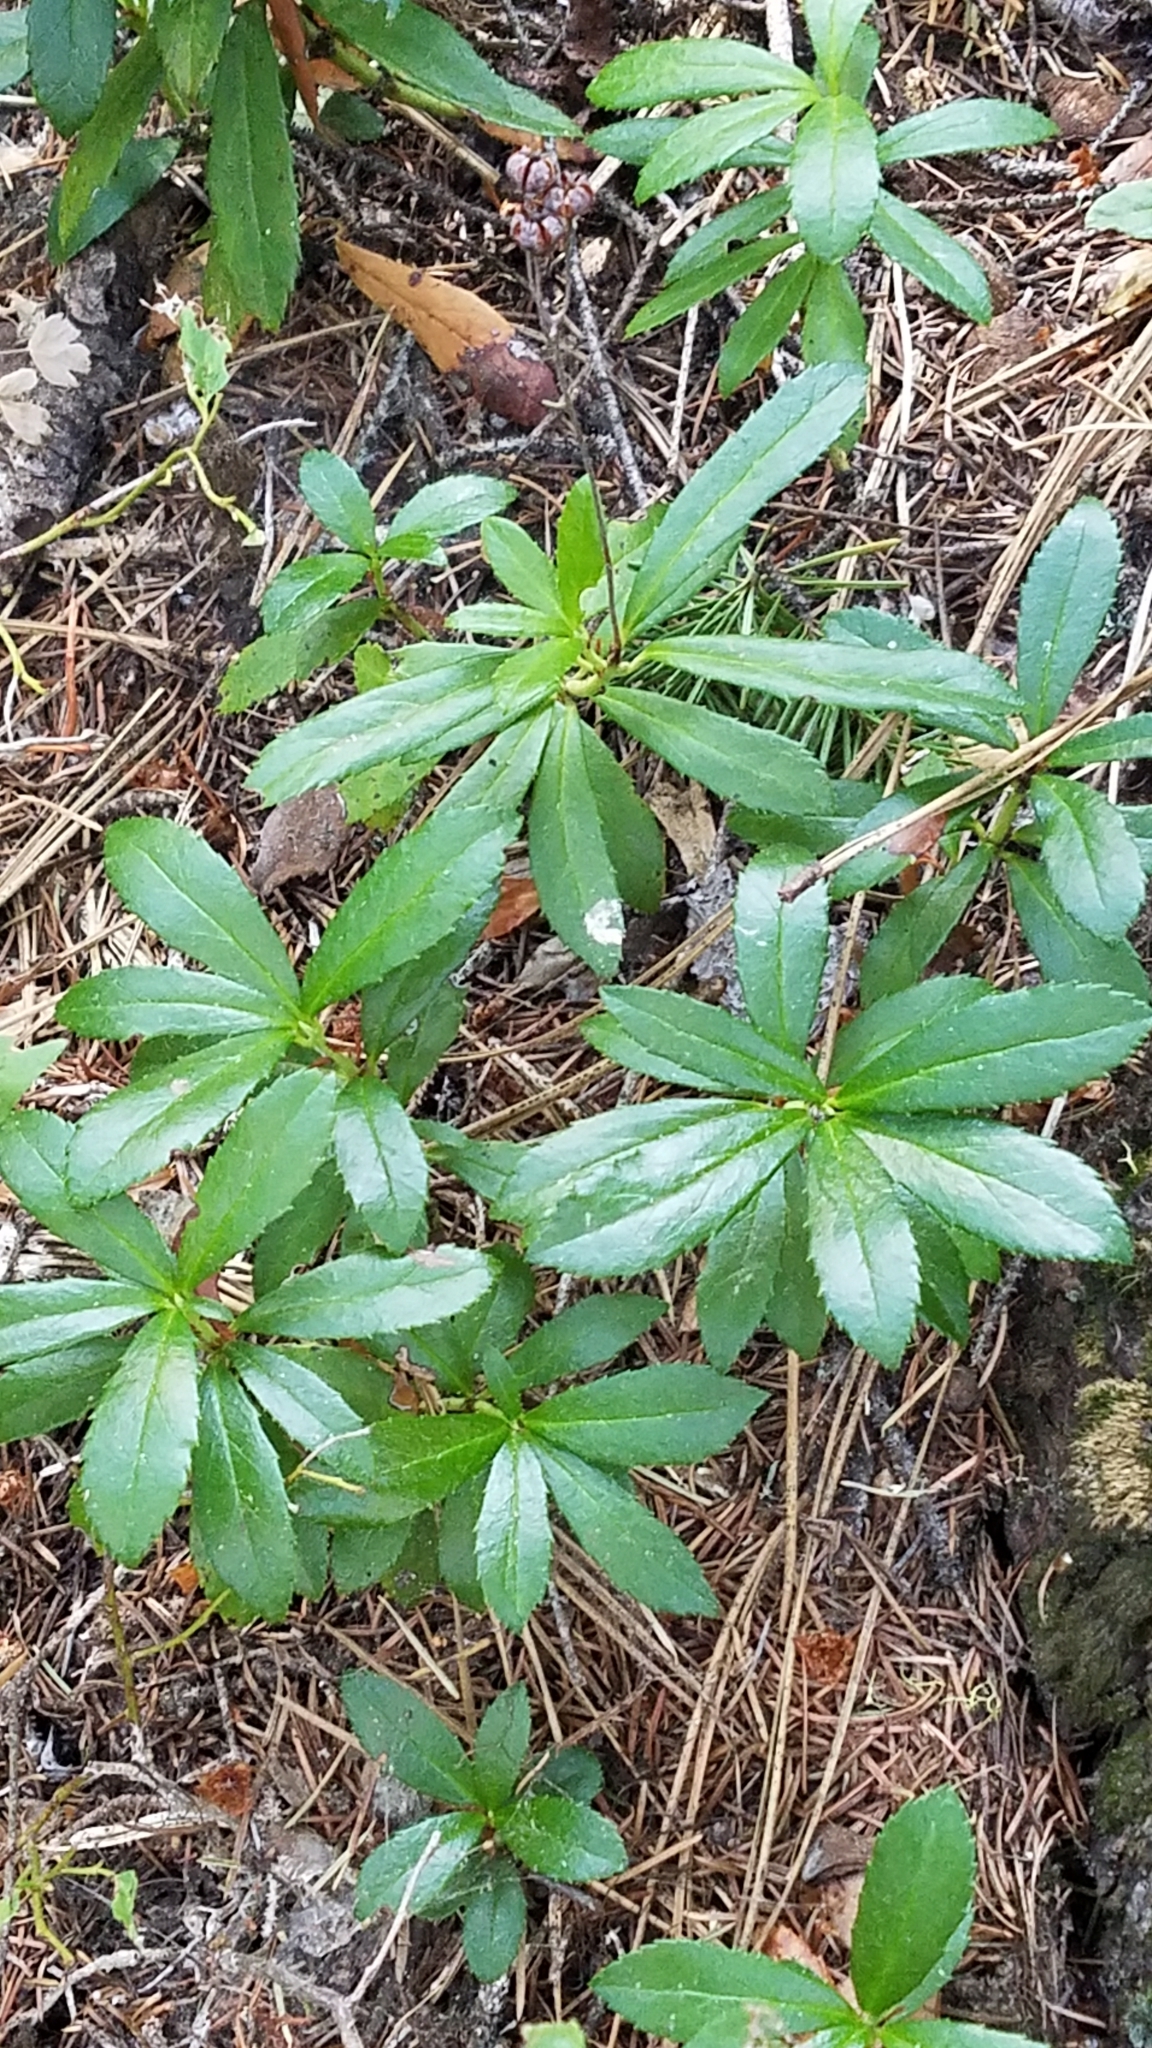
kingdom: Plantae
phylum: Tracheophyta
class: Magnoliopsida
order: Ericales
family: Ericaceae
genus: Chimaphila
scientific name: Chimaphila umbellata
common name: Pipsissewa
